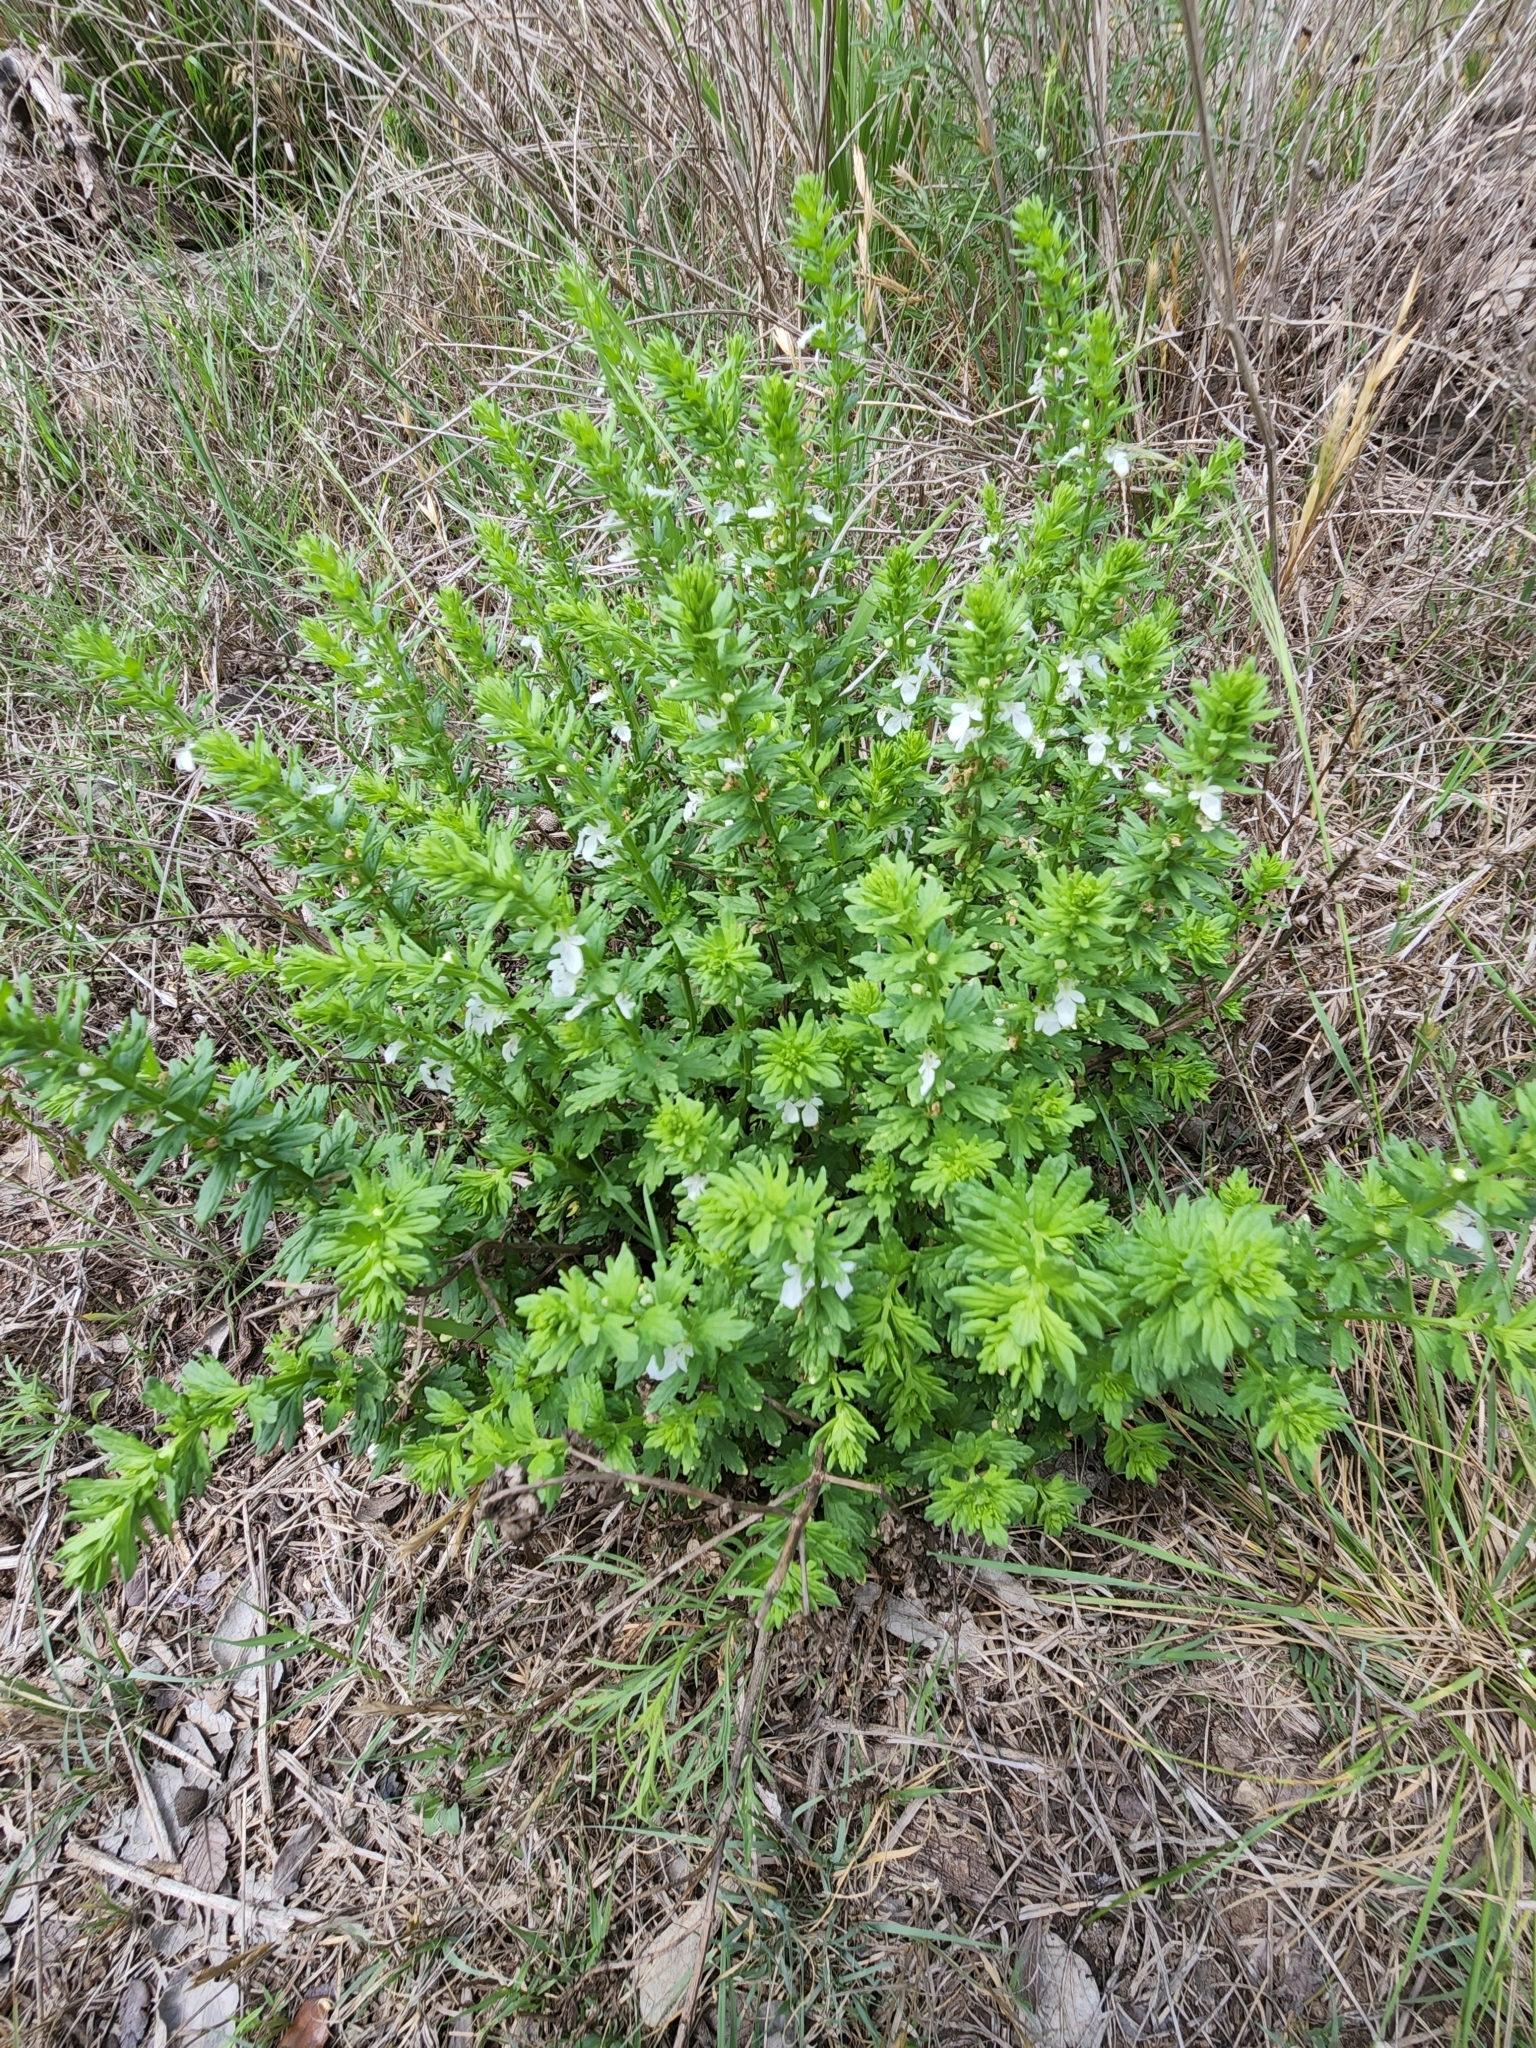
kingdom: Plantae
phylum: Tracheophyta
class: Magnoliopsida
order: Lamiales
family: Lamiaceae
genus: Teucrium
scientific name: Teucrium cubense
